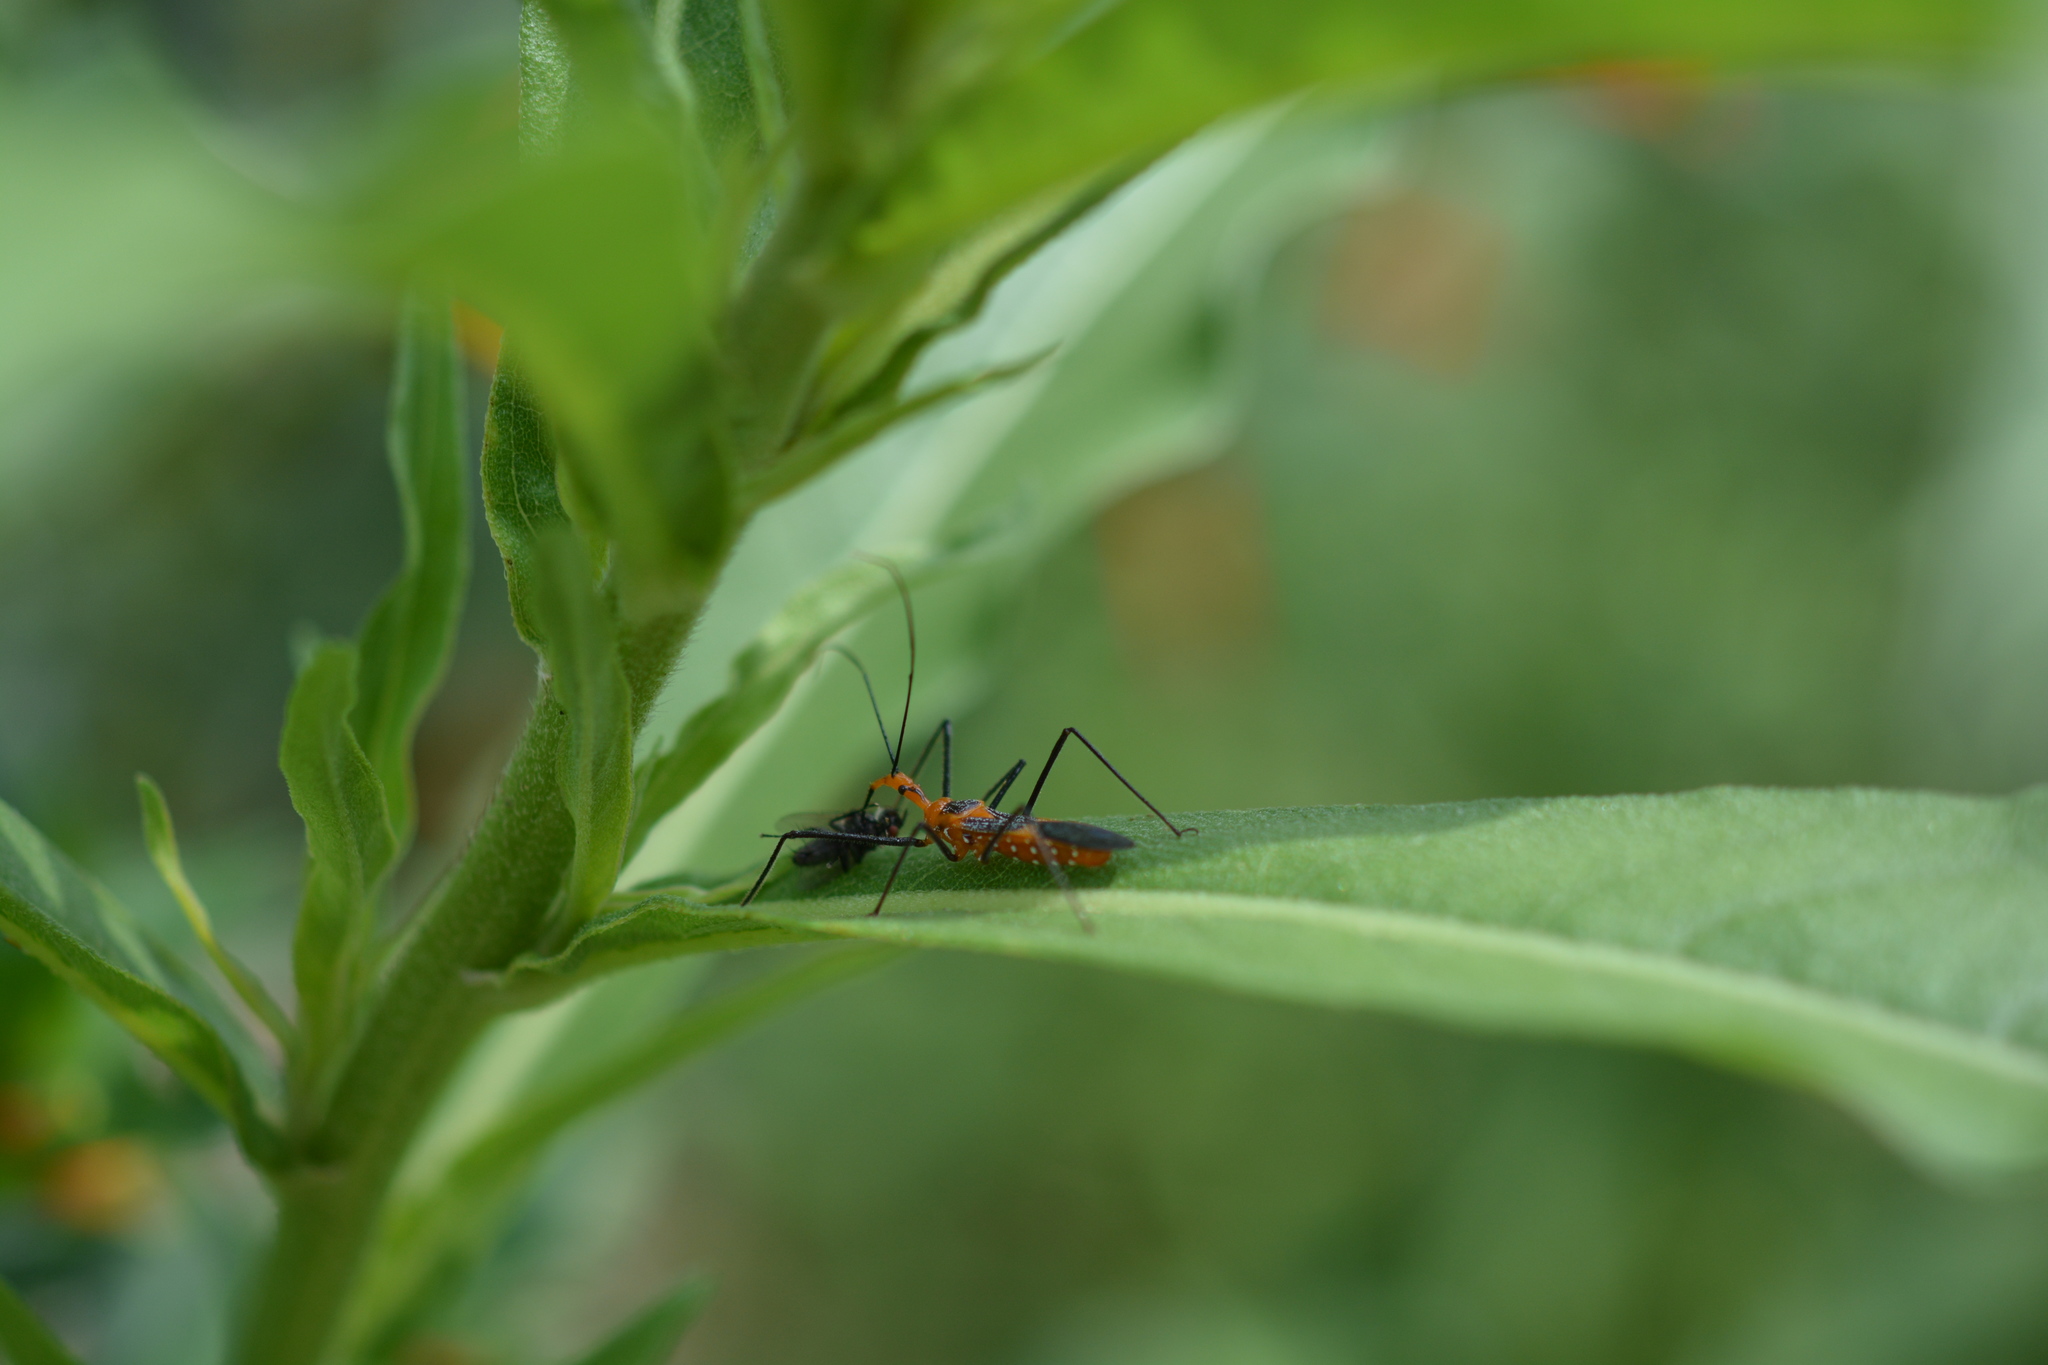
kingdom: Animalia
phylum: Arthropoda
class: Insecta
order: Hemiptera
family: Reduviidae
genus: Zelus
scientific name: Zelus longipes
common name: Milkweed assassin bug
